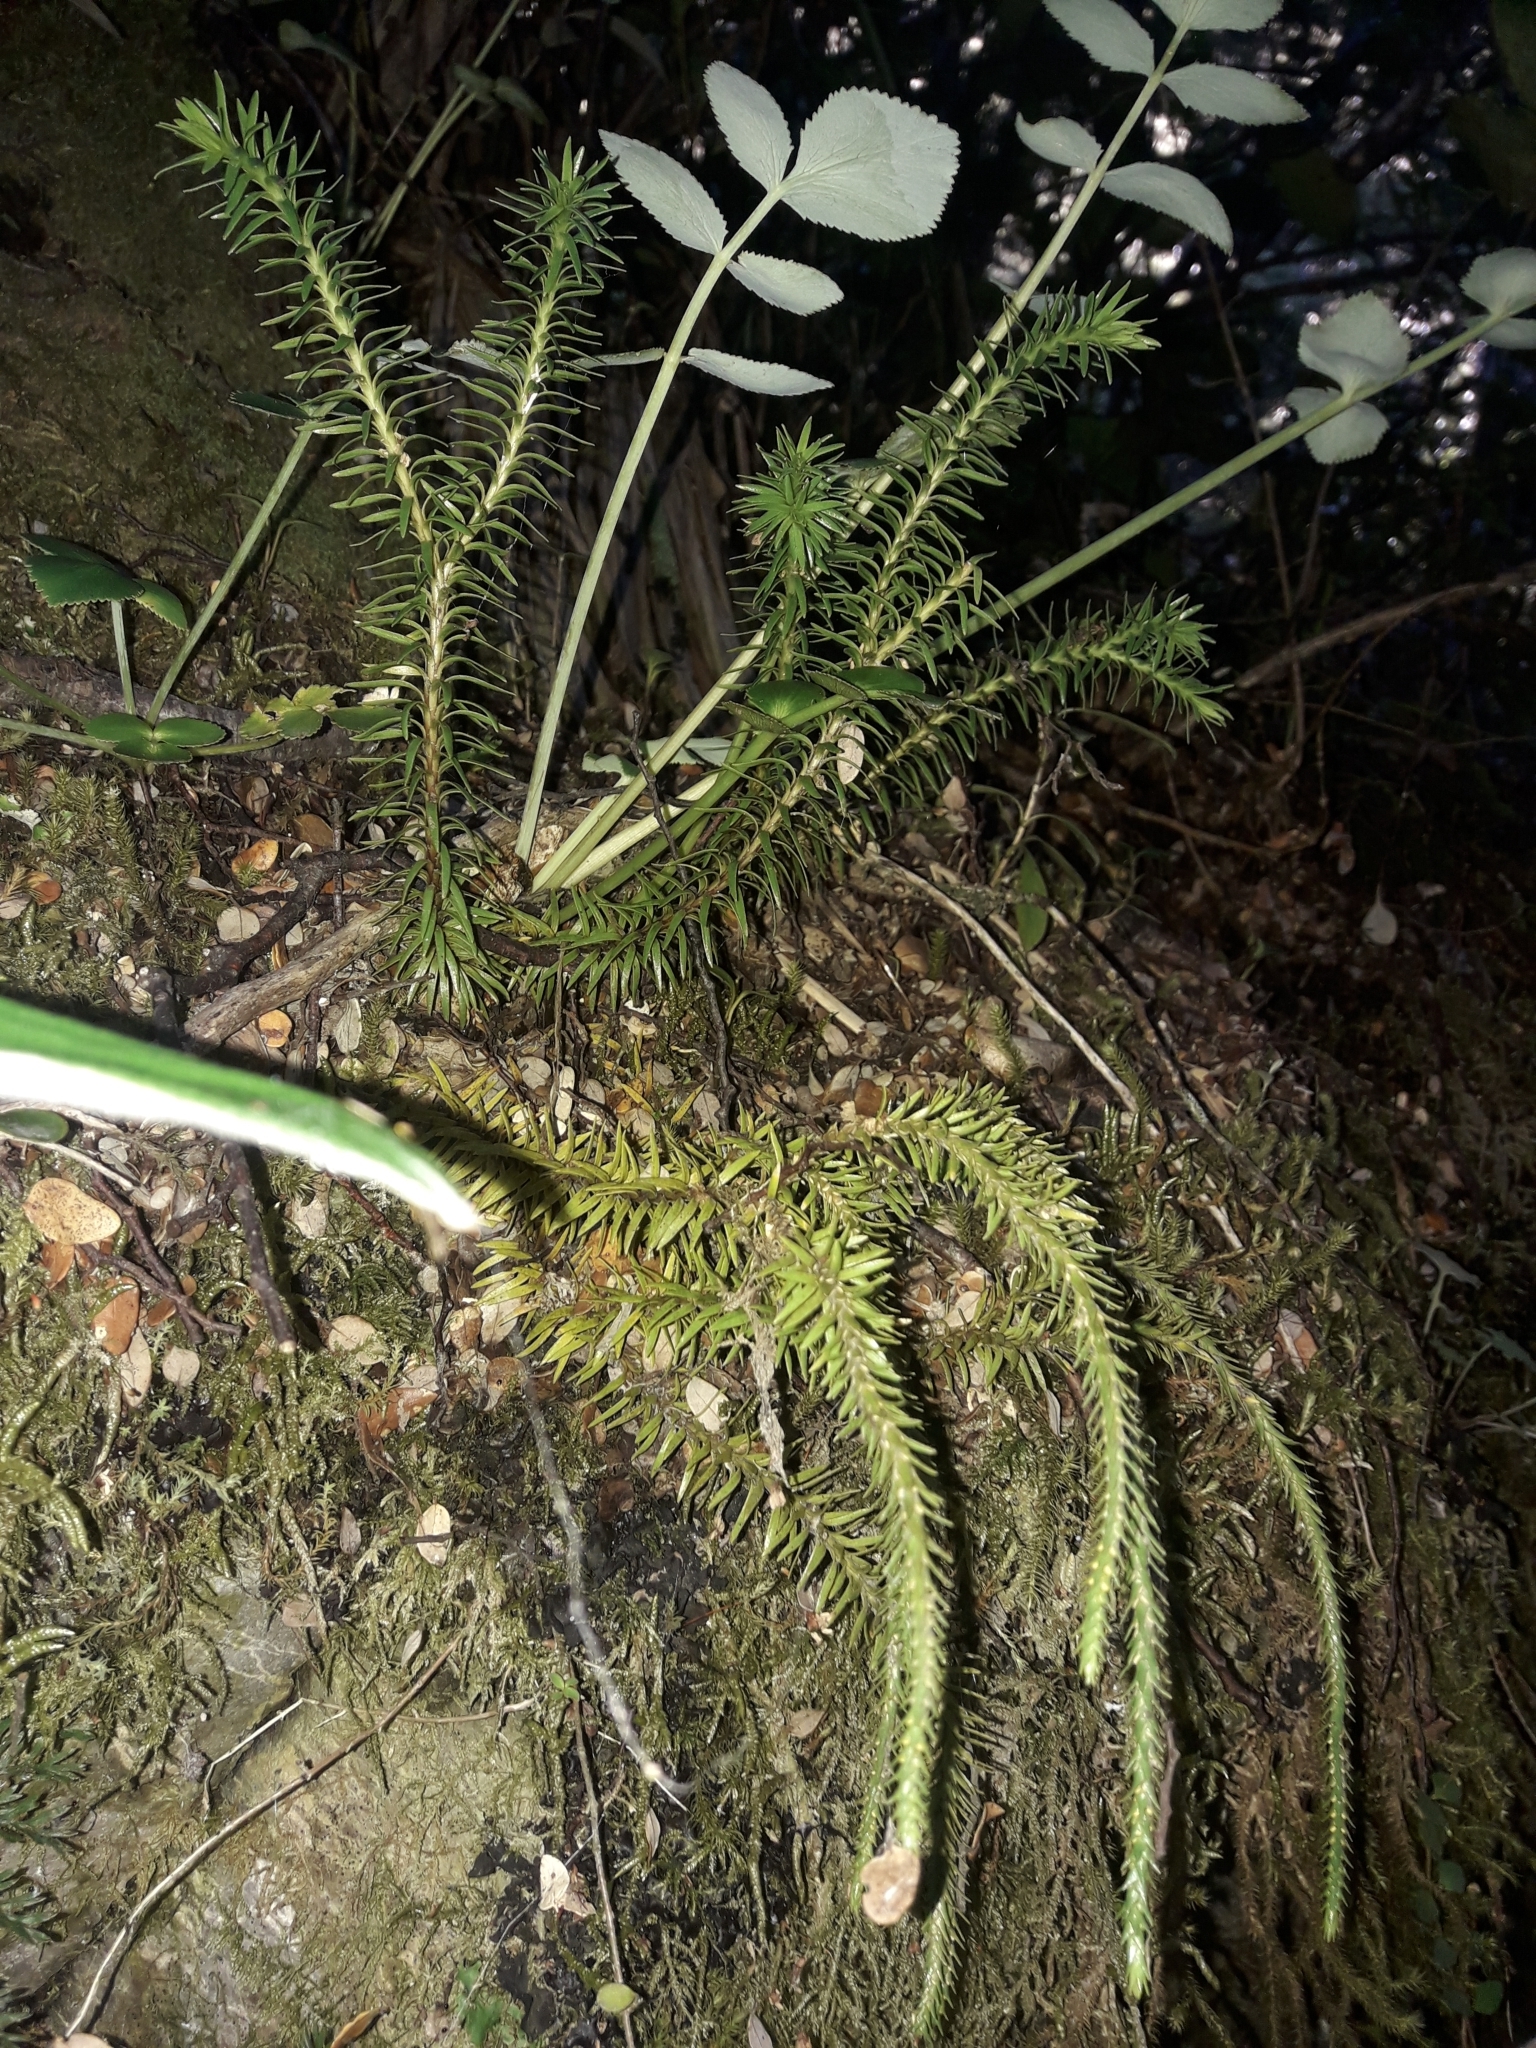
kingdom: Plantae
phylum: Tracheophyta
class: Lycopodiopsida
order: Lycopodiales
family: Lycopodiaceae
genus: Phlegmariurus
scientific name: Phlegmariurus varius
